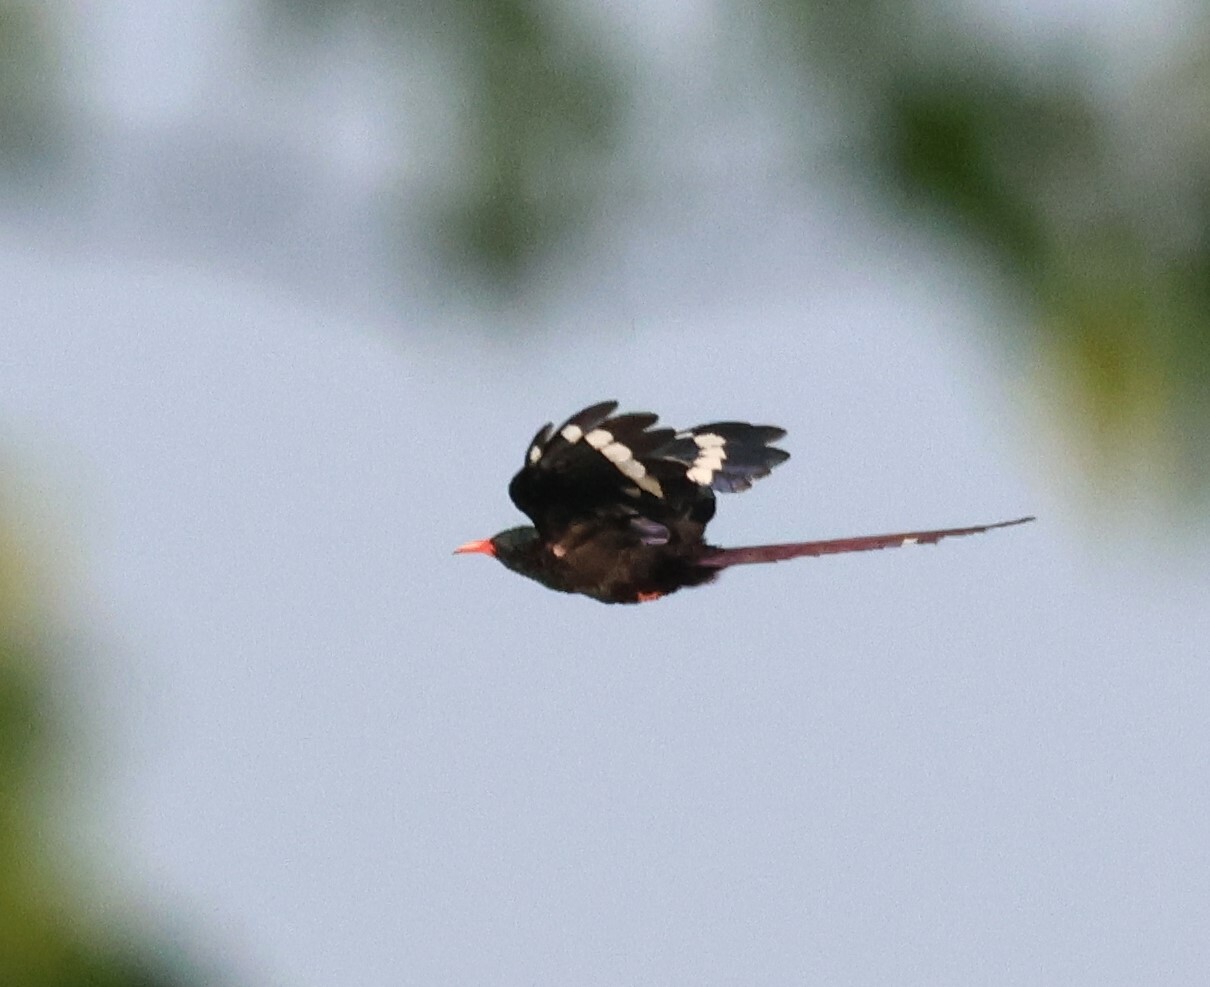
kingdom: Animalia
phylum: Chordata
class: Aves
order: Bucerotiformes
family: Phoeniculidae
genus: Phoeniculus
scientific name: Phoeniculus purpureus
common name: Green woodhoopoe
